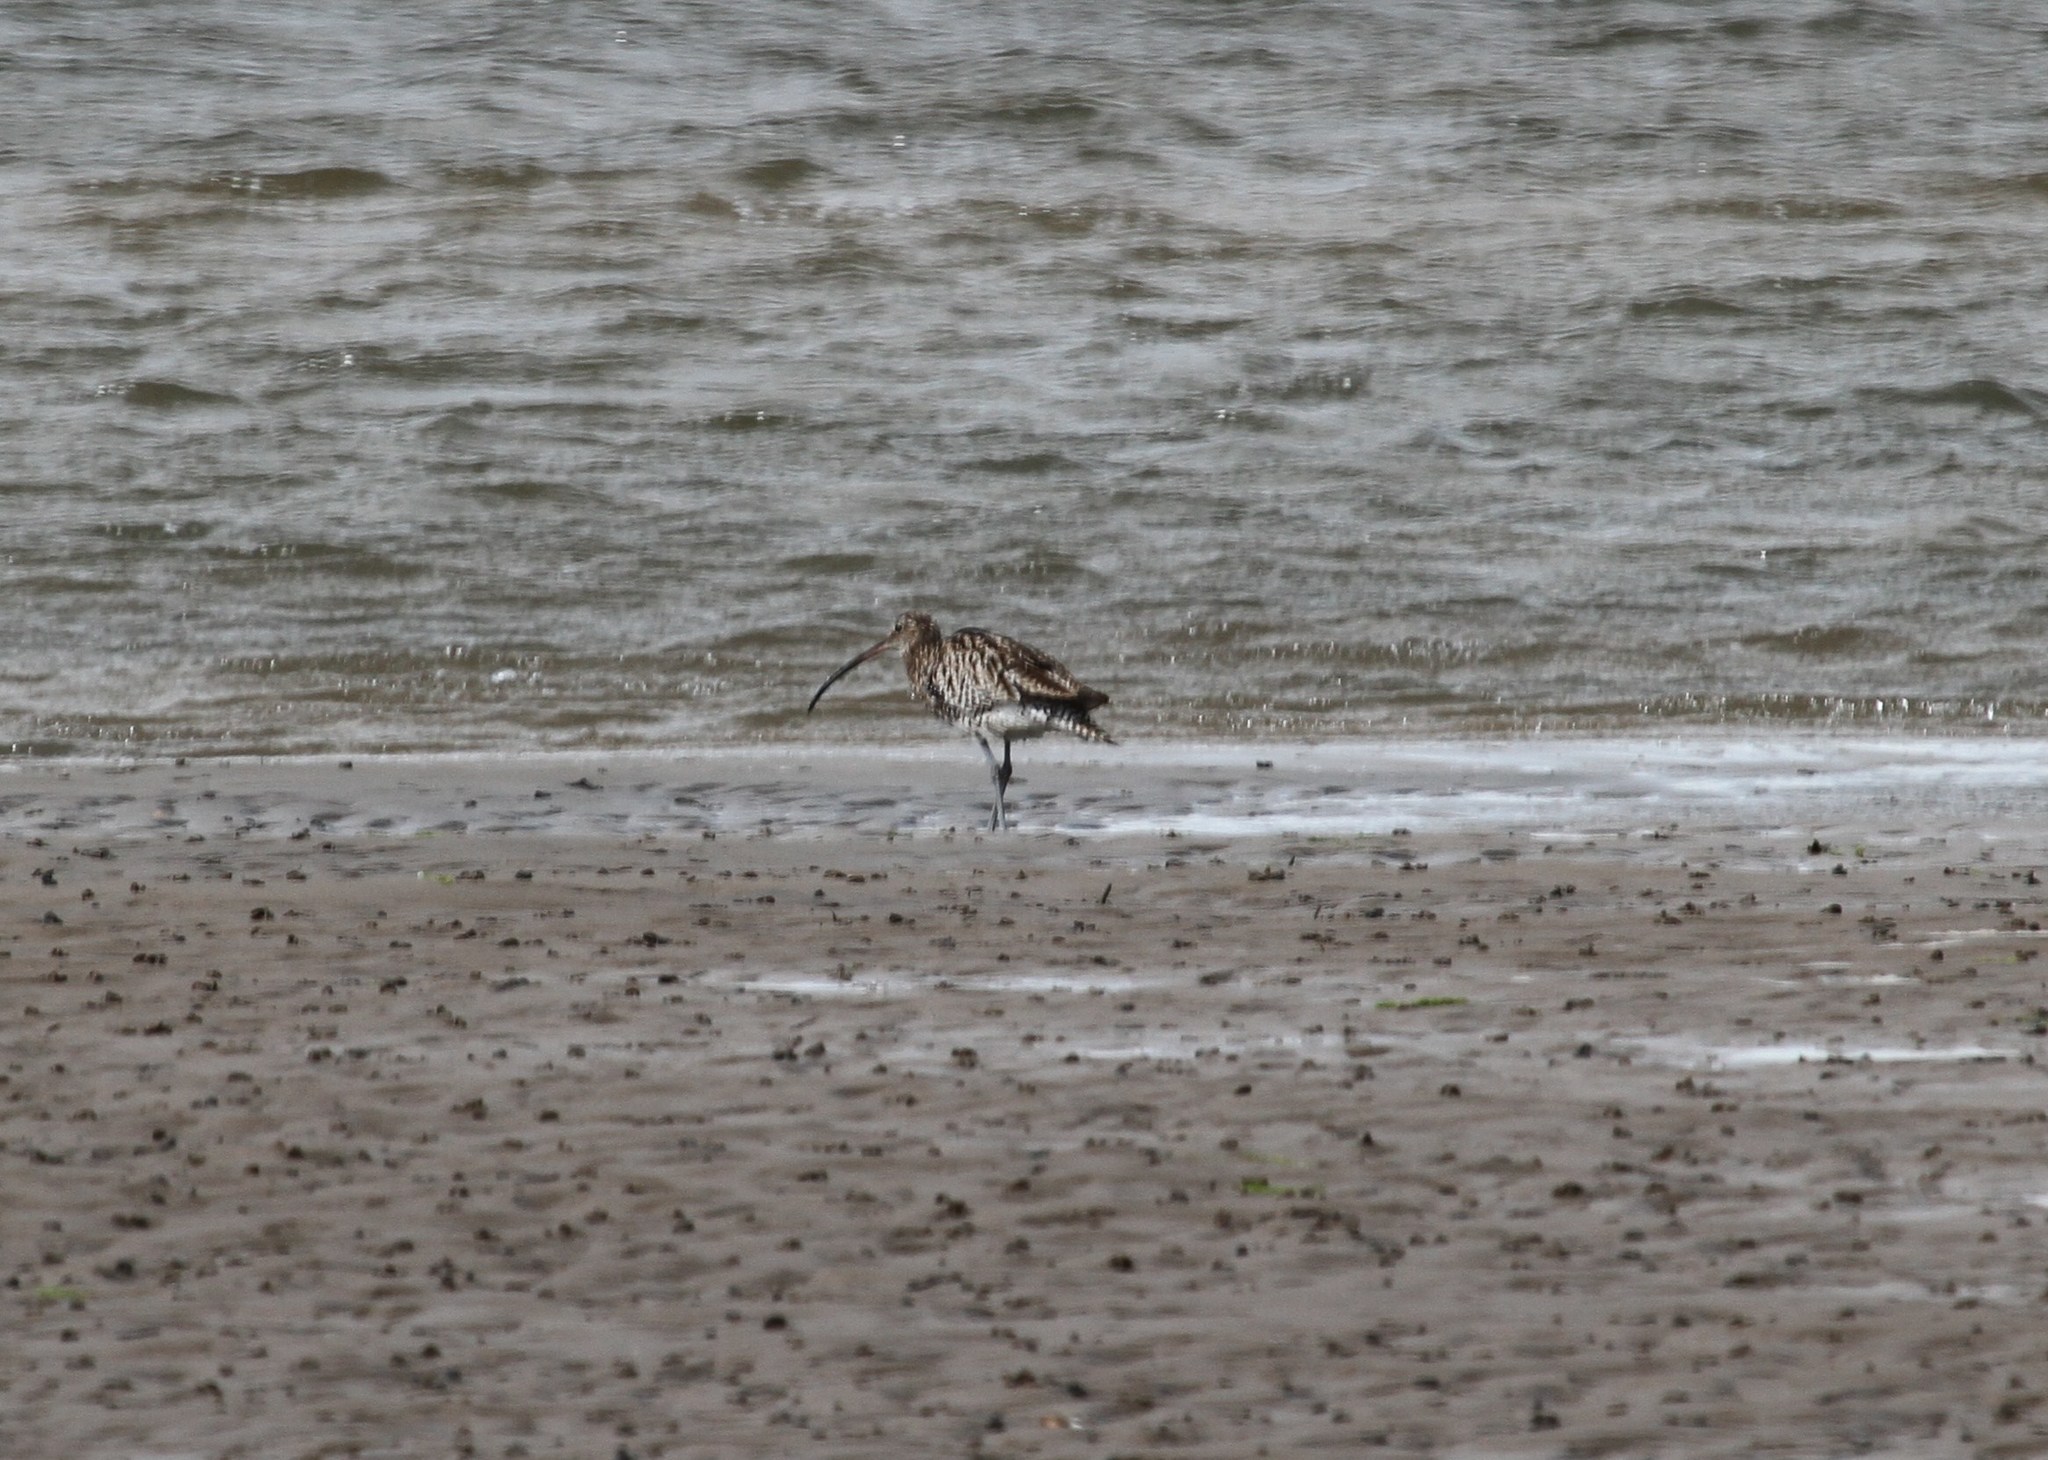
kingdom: Animalia
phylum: Chordata
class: Aves
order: Charadriiformes
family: Scolopacidae
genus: Numenius
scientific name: Numenius arquata
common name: Eurasian curlew
